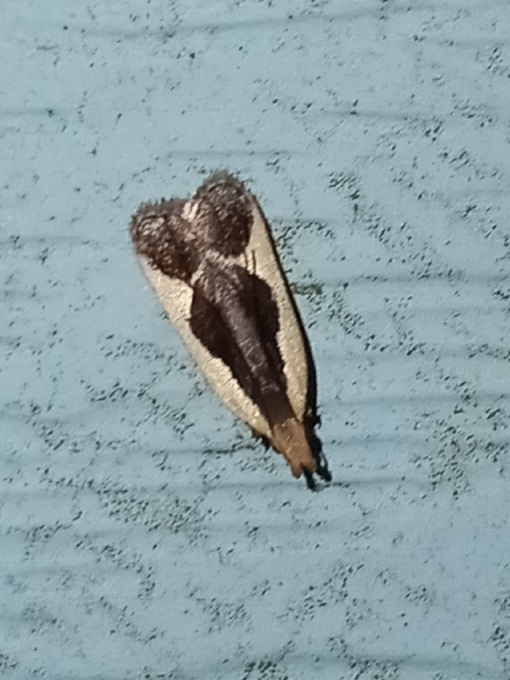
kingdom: Animalia
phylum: Arthropoda
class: Insecta
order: Lepidoptera
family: Gelechiidae
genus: Dichomeris
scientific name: Dichomeris flavocostella
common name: Cream-edged dichomeris moth
